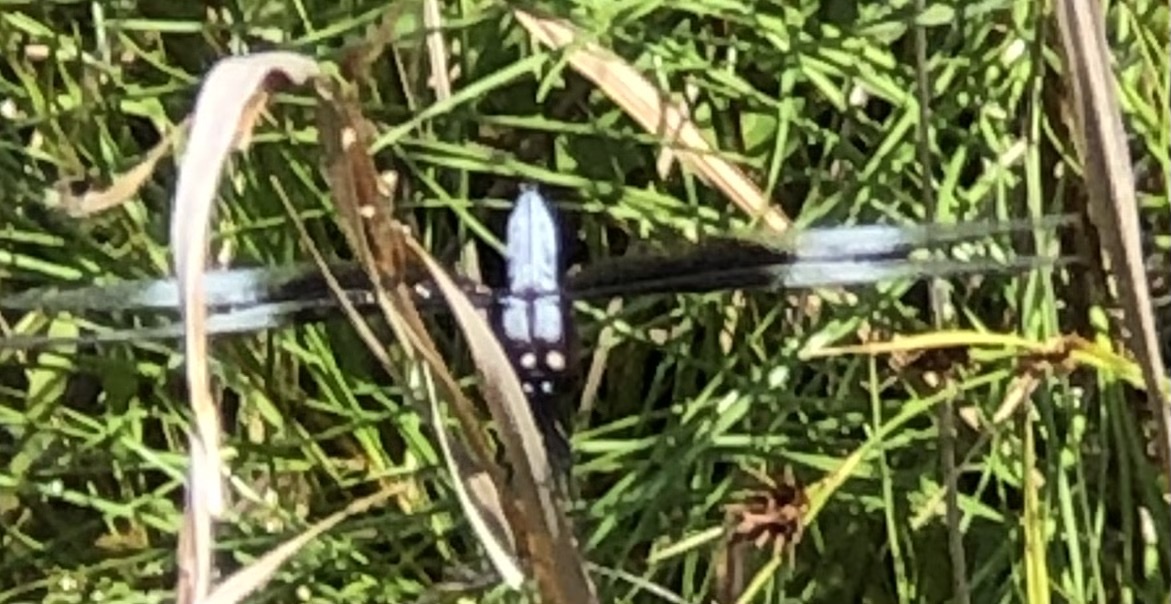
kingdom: Animalia
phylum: Arthropoda
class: Insecta
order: Odonata
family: Libellulidae
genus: Libellula
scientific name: Libellula luctuosa
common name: Widow skimmer
